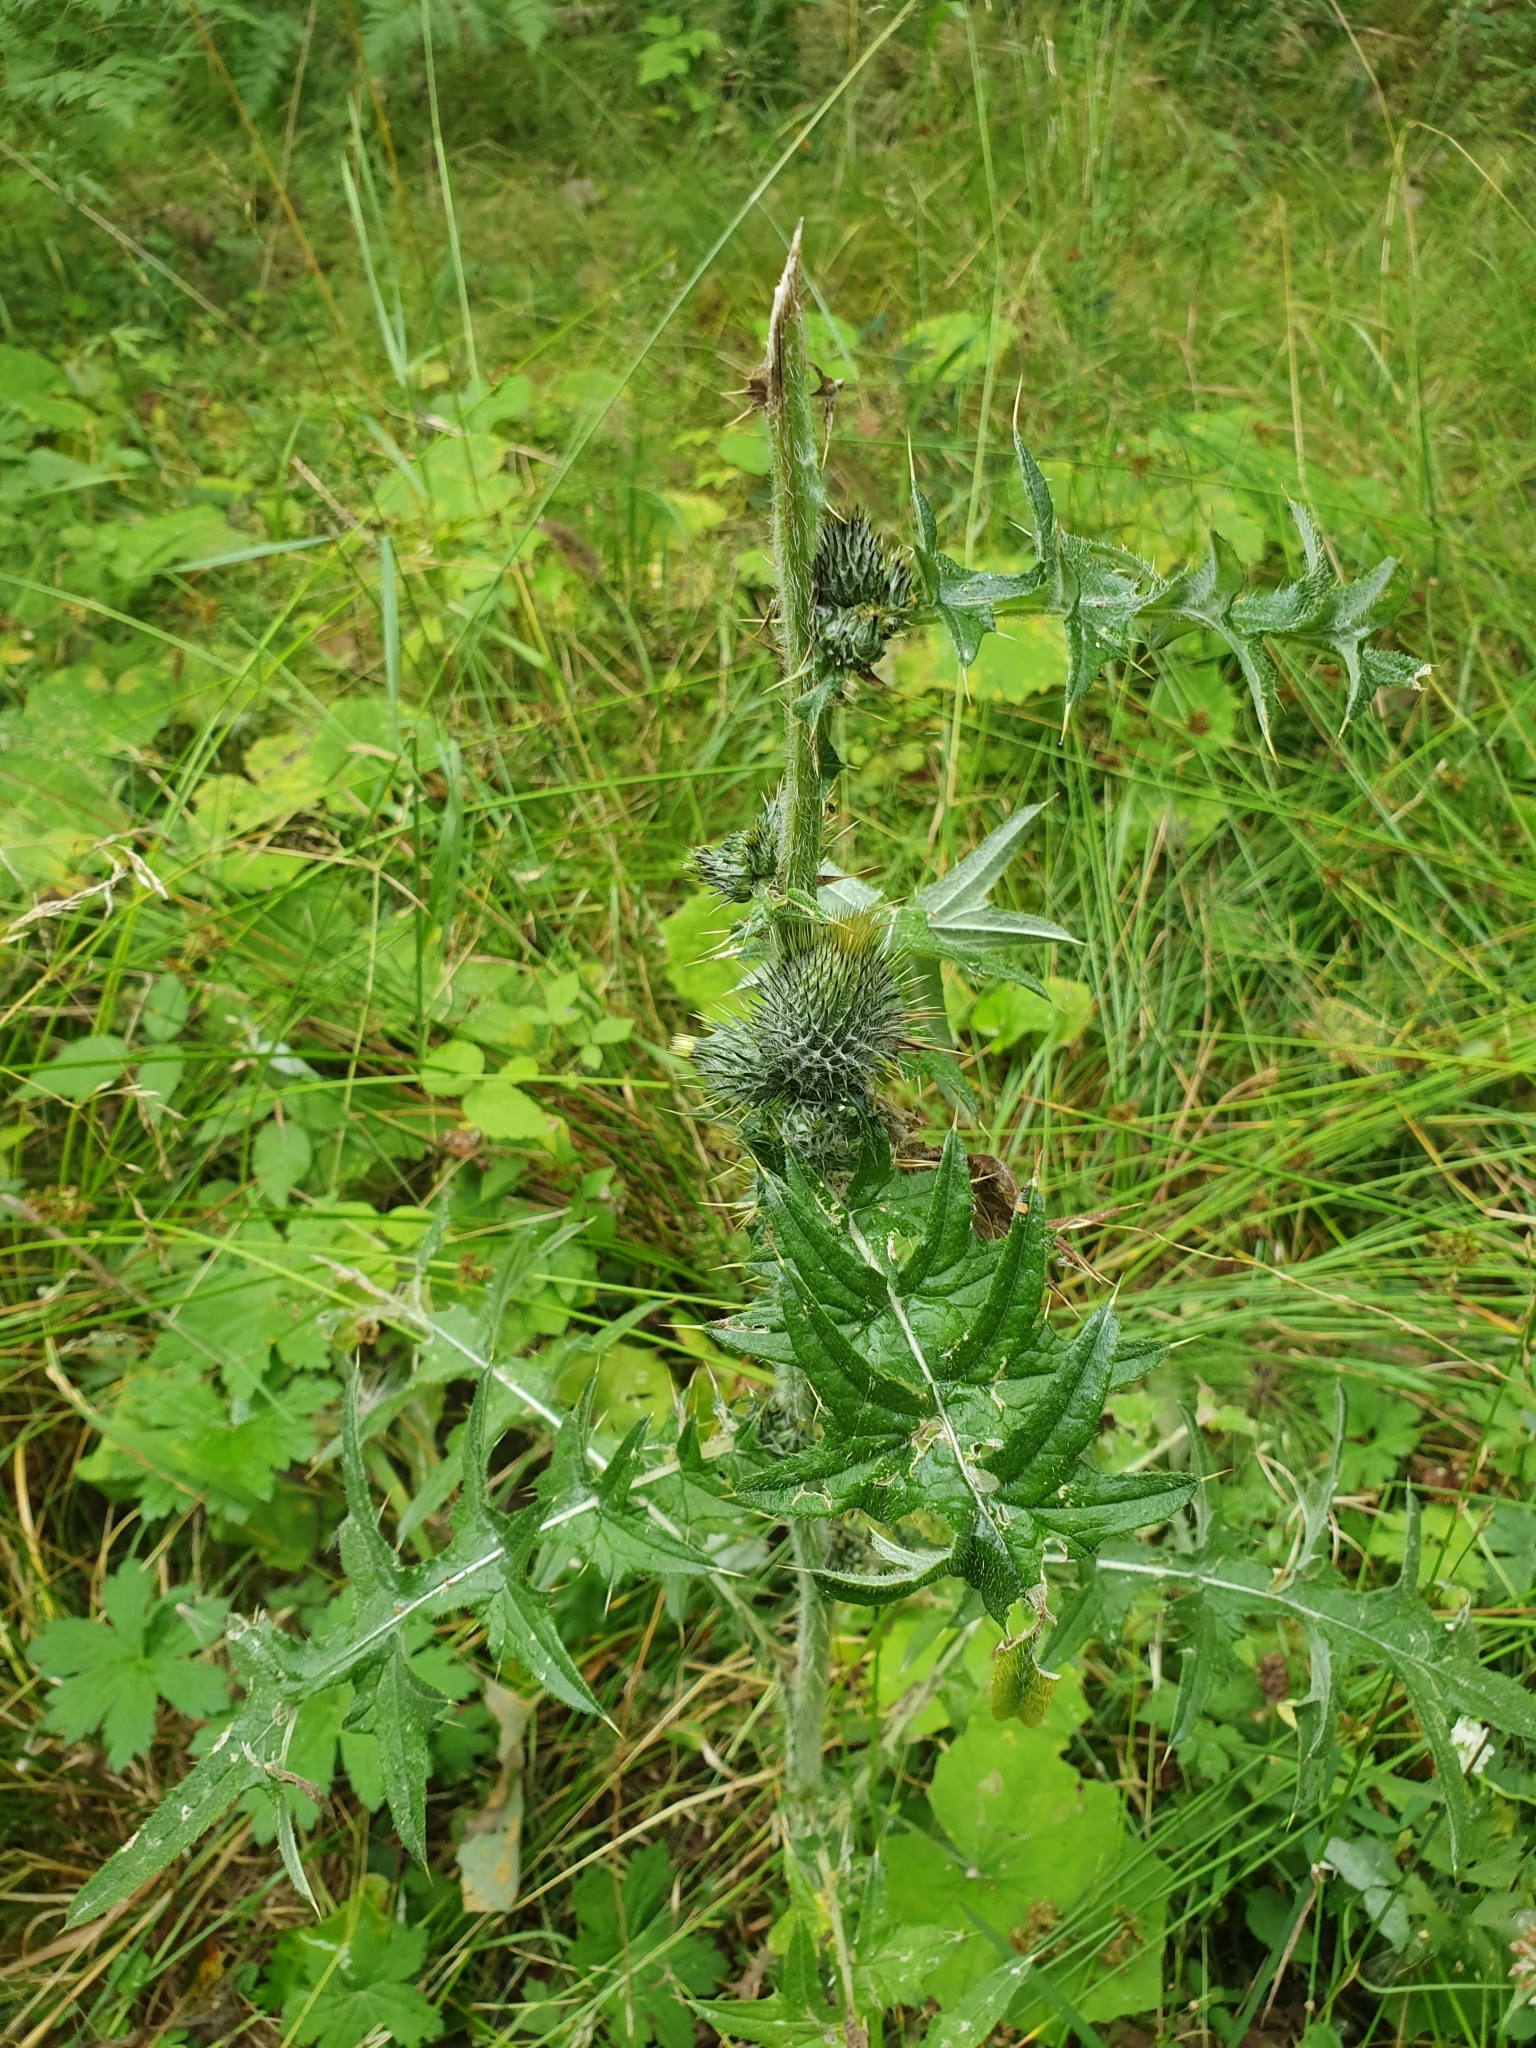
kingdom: Plantae
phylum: Tracheophyta
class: Magnoliopsida
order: Asterales
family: Asteraceae
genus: Cirsium
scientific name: Cirsium vulgare
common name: Bull thistle
